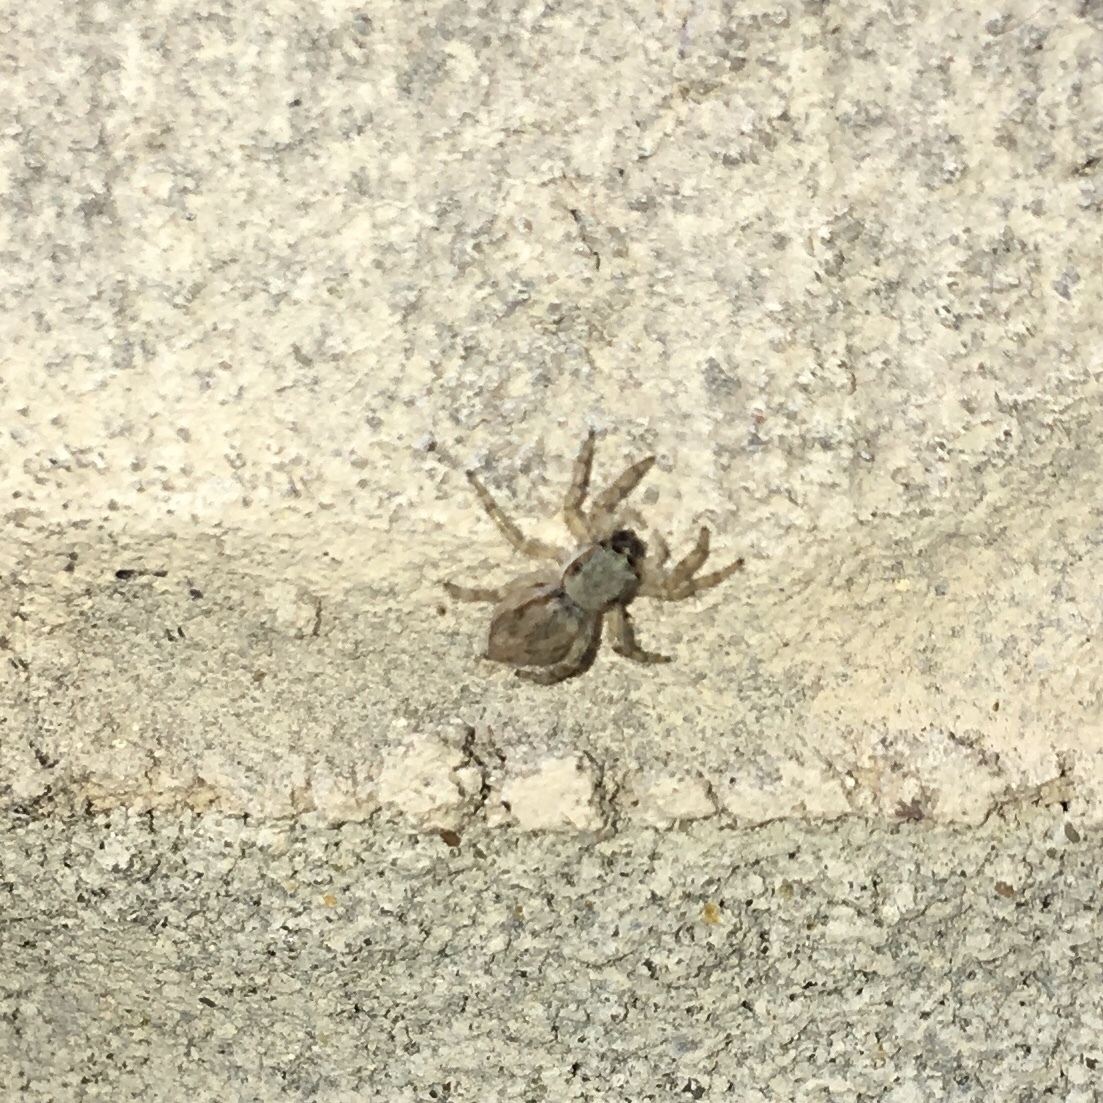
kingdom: Animalia
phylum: Arthropoda
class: Arachnida
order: Araneae
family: Salticidae
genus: Menemerus
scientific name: Menemerus bivittatus
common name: Gray wall jumper
